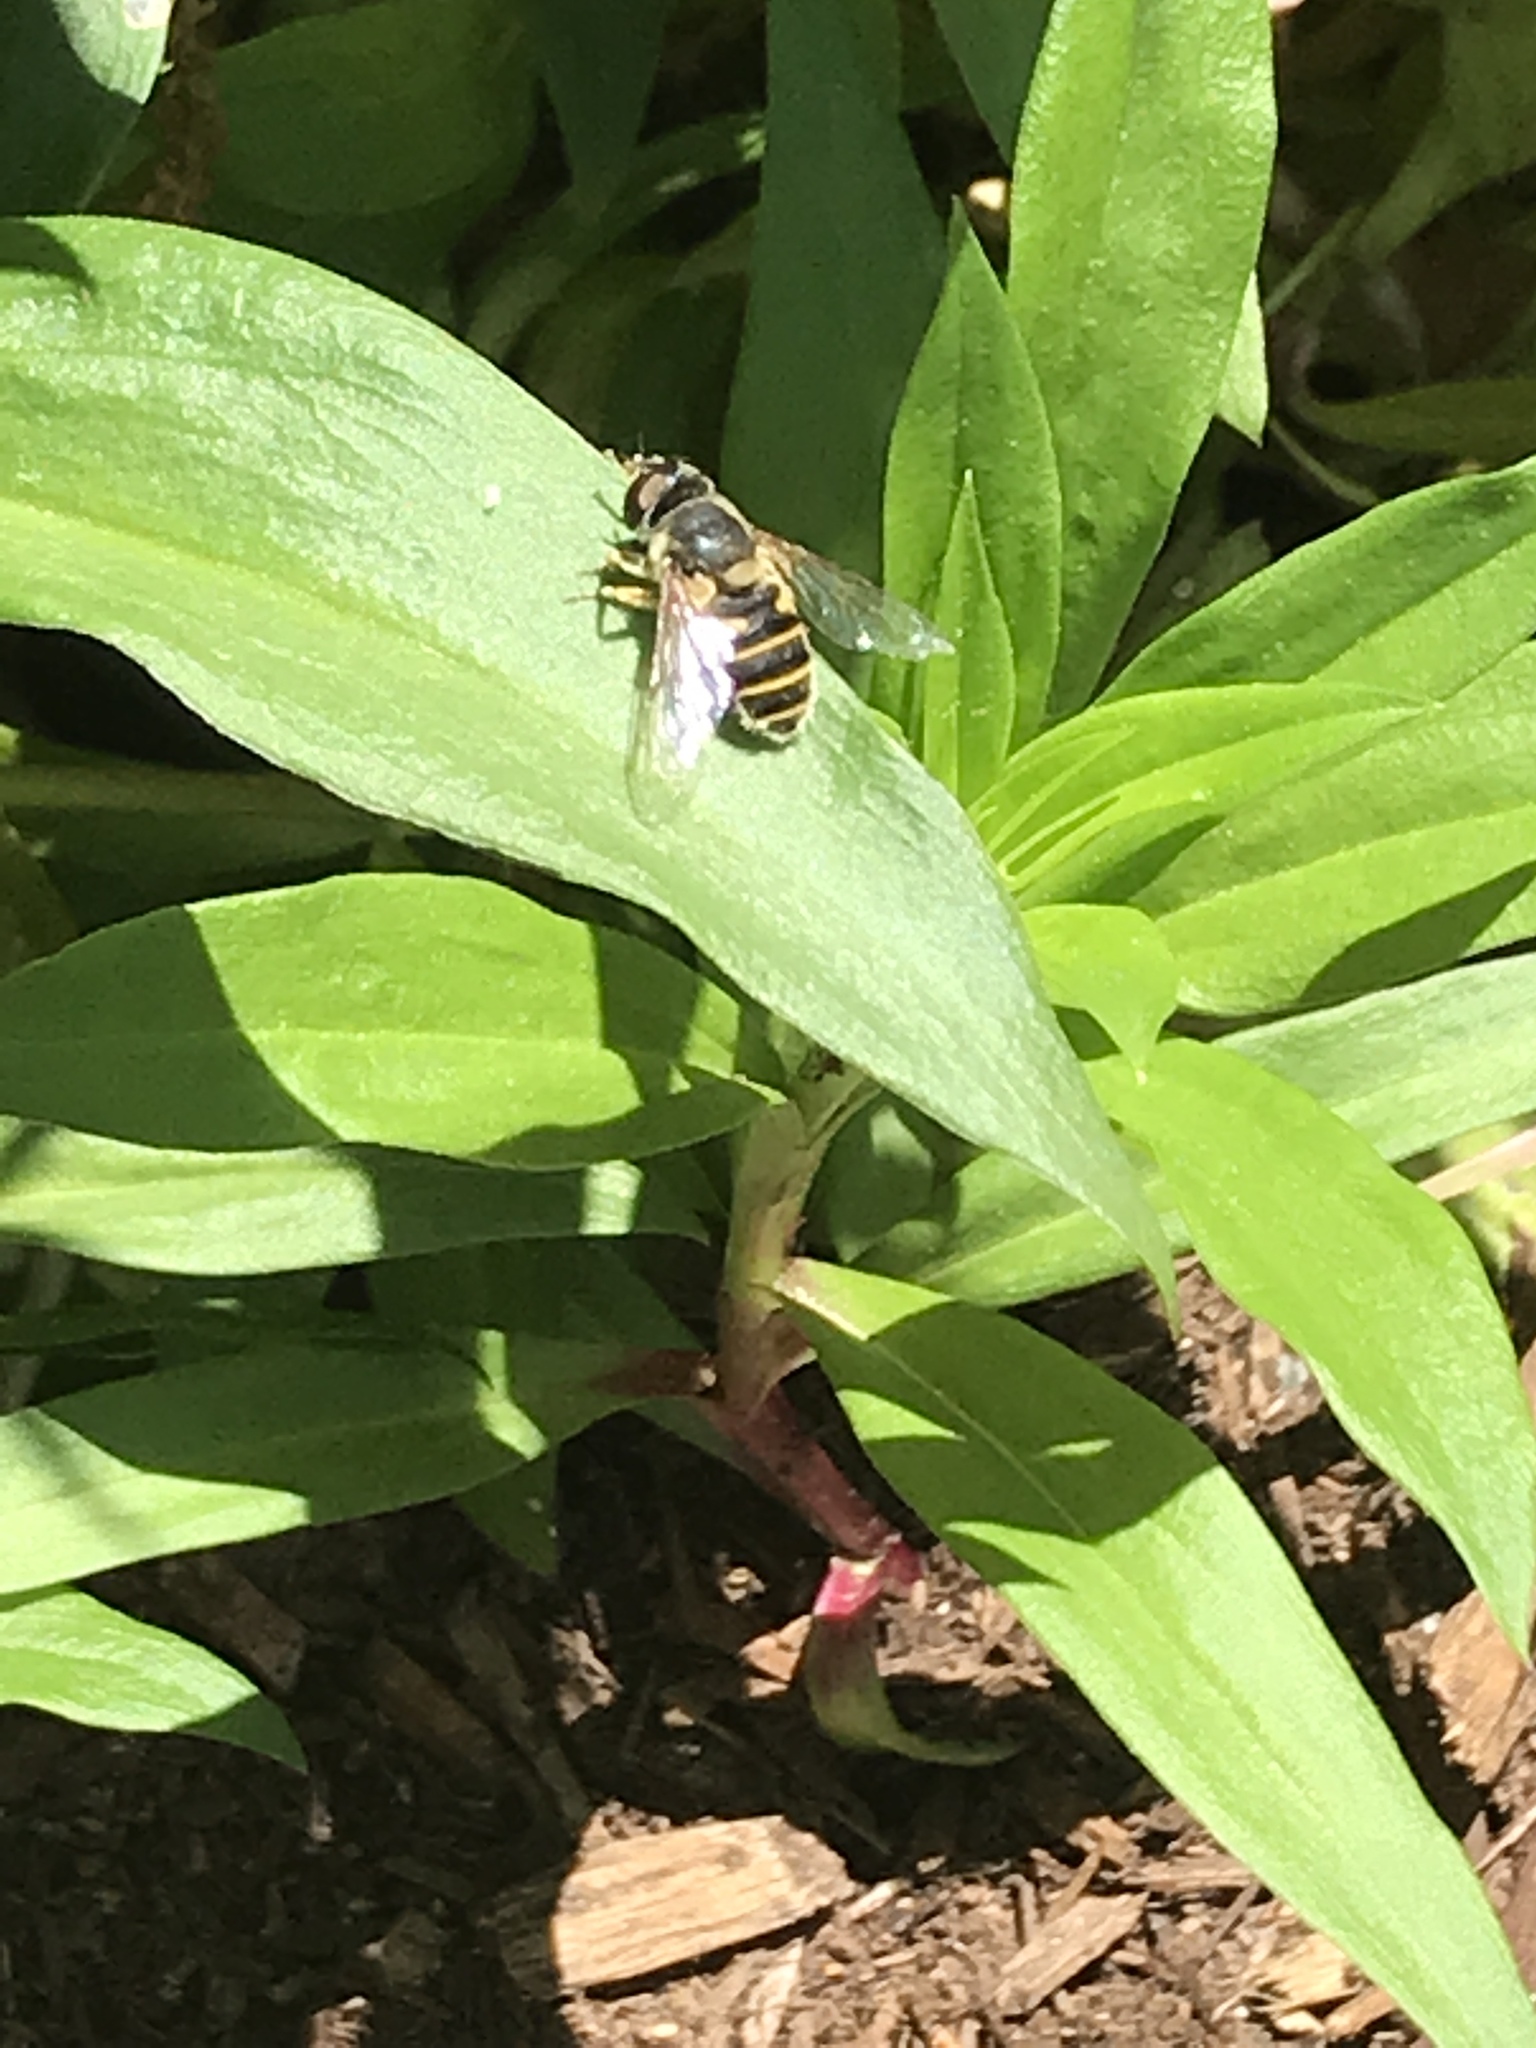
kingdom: Animalia
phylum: Arthropoda
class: Insecta
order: Diptera
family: Syrphidae
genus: Eristalis
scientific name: Eristalis transversa
